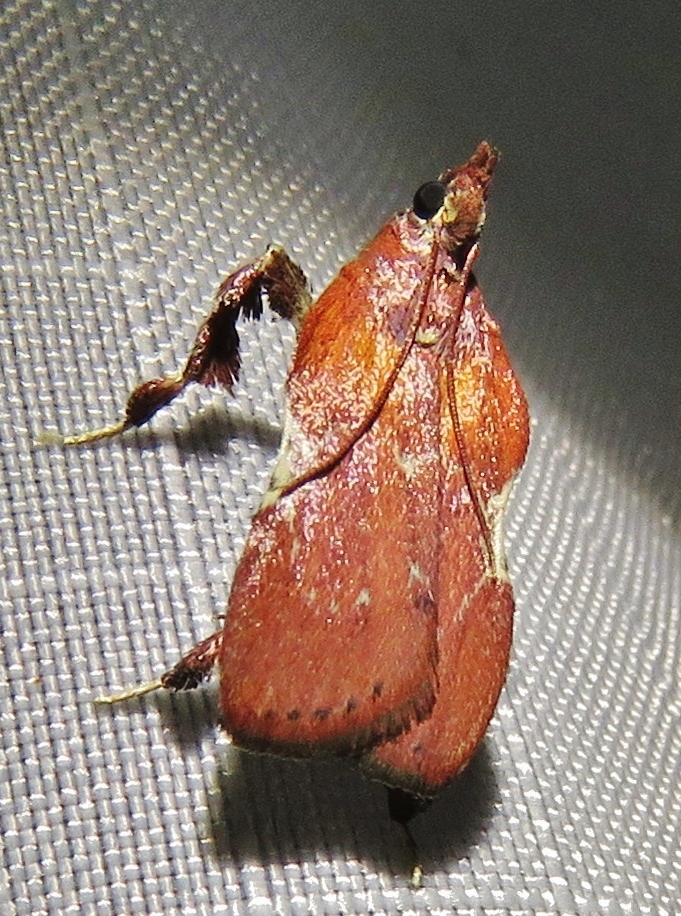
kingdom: Animalia
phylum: Arthropoda
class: Insecta
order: Lepidoptera
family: Pyralidae
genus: Galasa
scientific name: Galasa nigrinodis
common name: Boxwood leaftier moth
